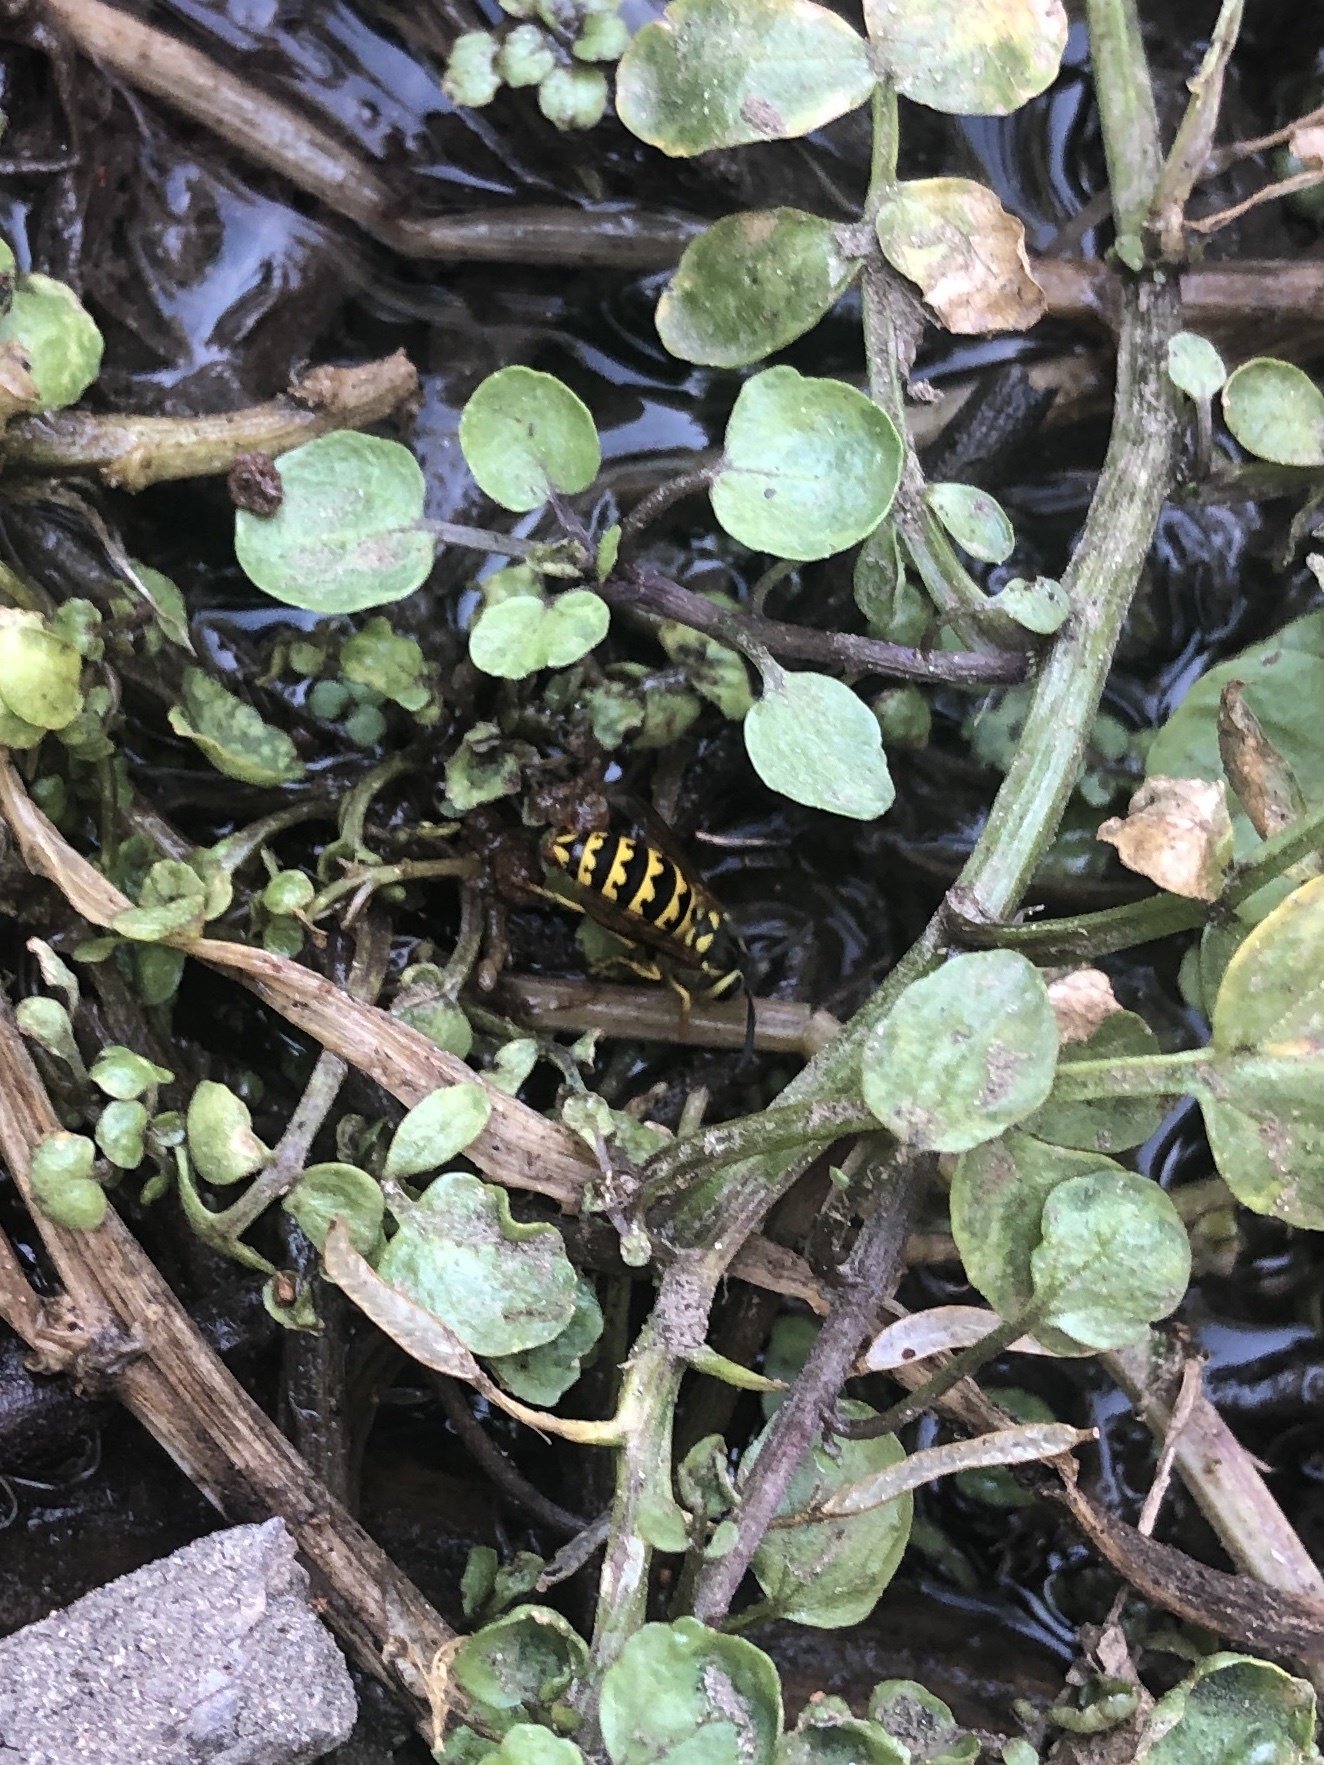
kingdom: Animalia
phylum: Arthropoda
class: Insecta
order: Hymenoptera
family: Vespidae
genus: Vespula
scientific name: Vespula pensylvanica
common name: Western yellowjacket
